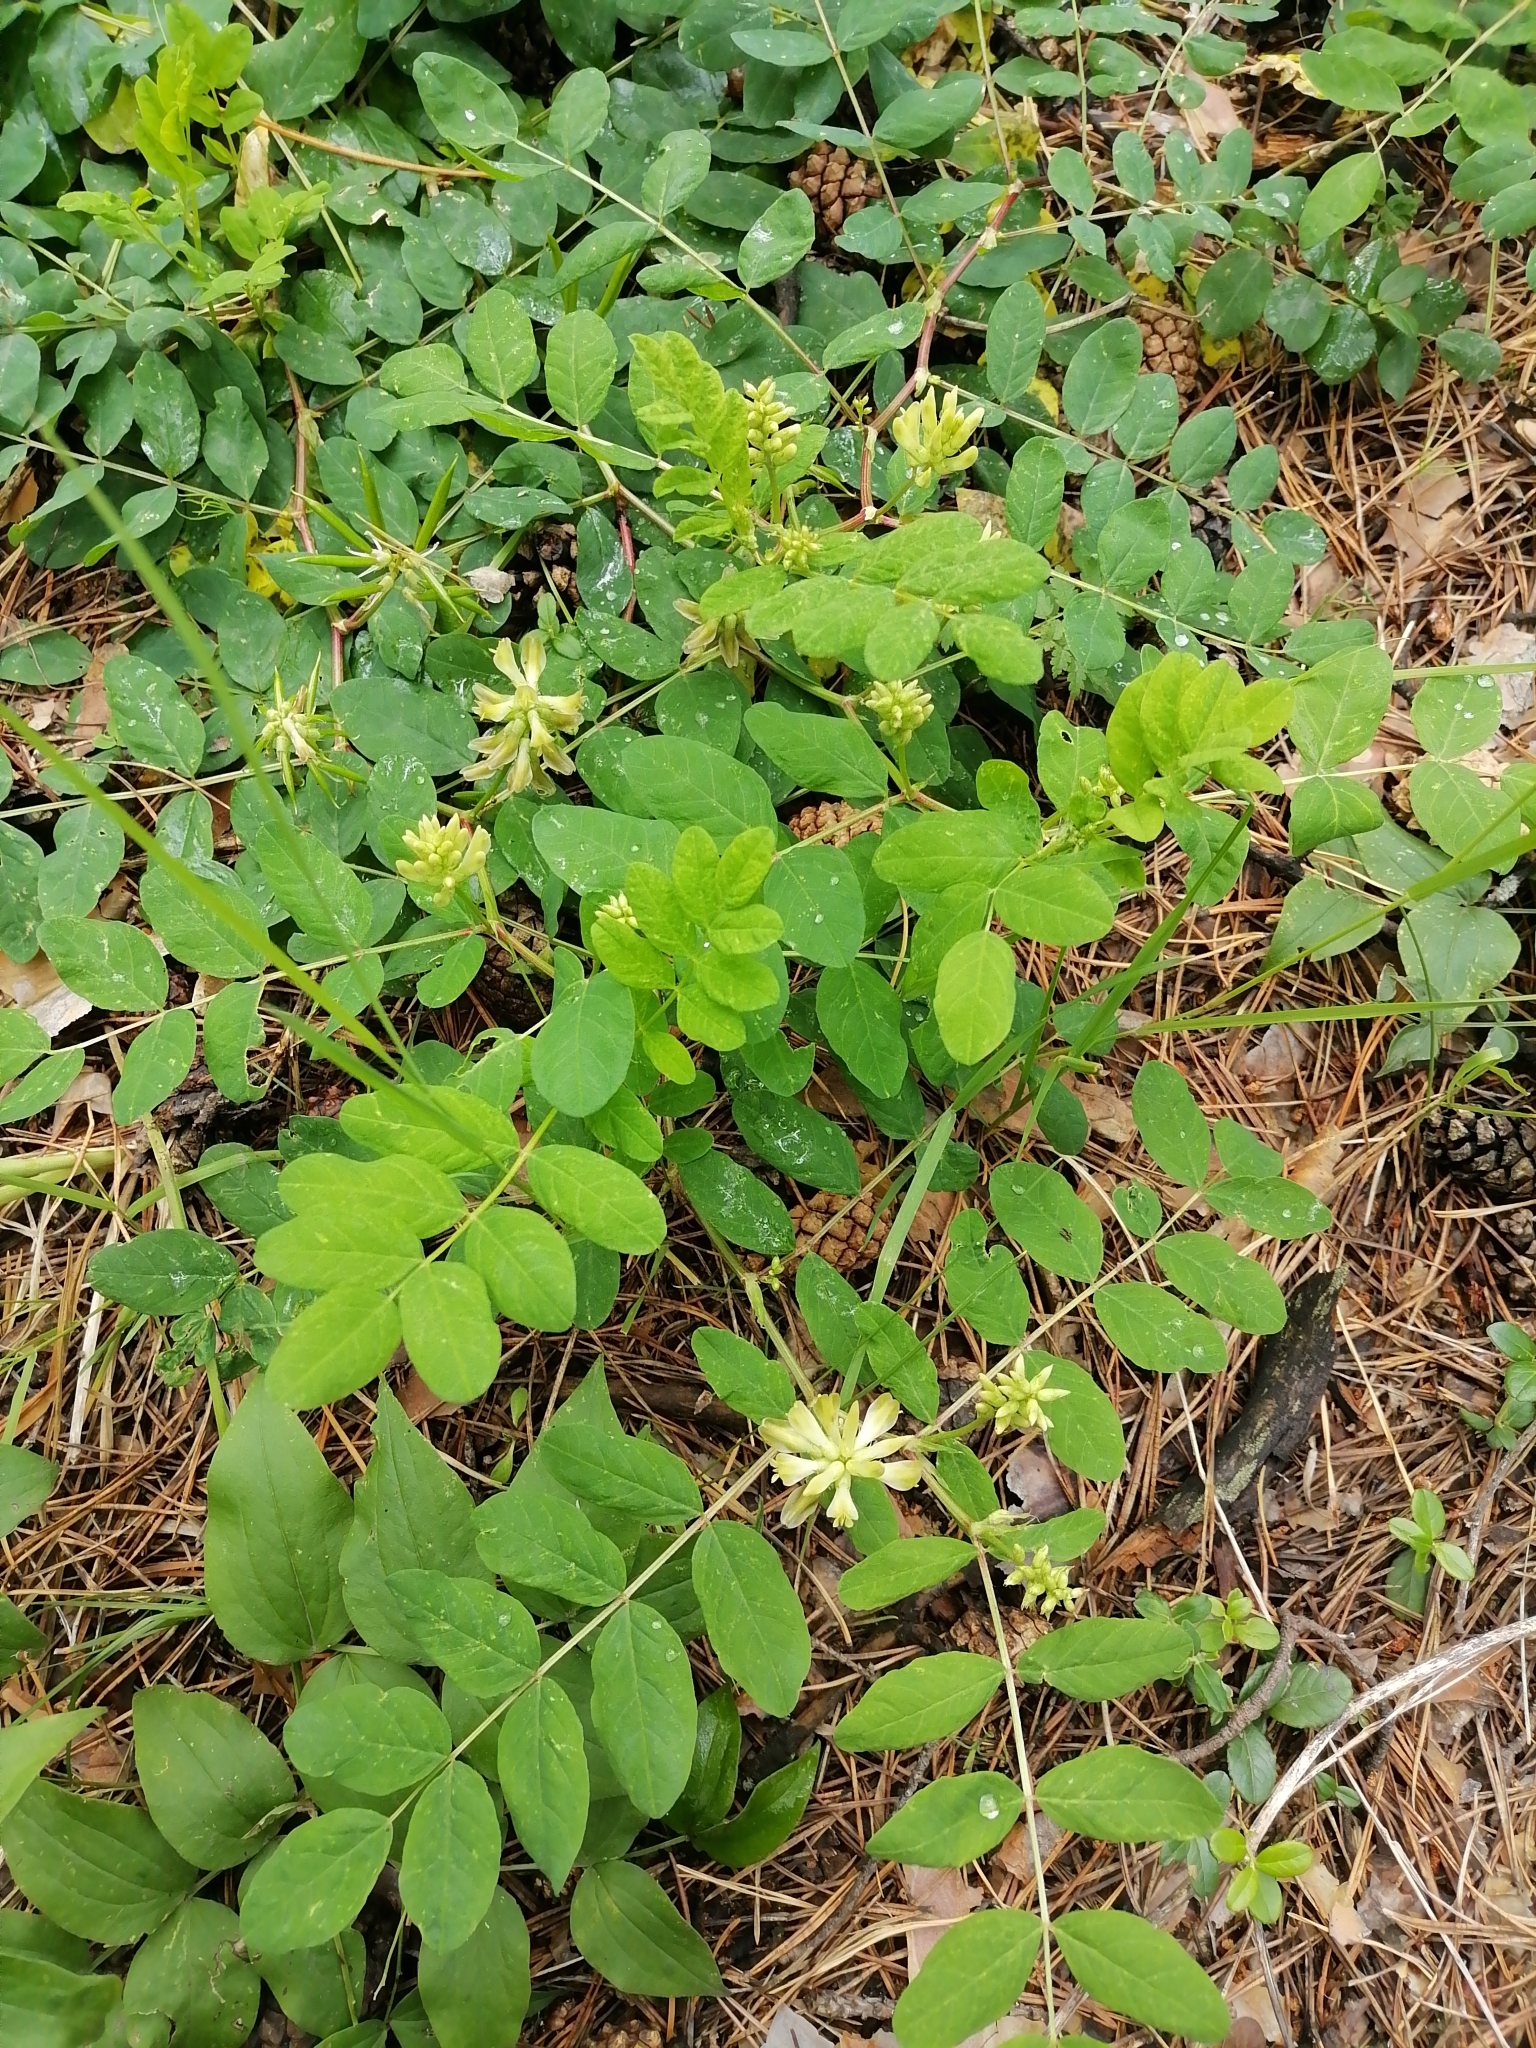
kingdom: Plantae
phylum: Tracheophyta
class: Magnoliopsida
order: Fabales
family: Fabaceae
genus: Astragalus
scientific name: Astragalus glycyphyllos
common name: Wild liquorice
